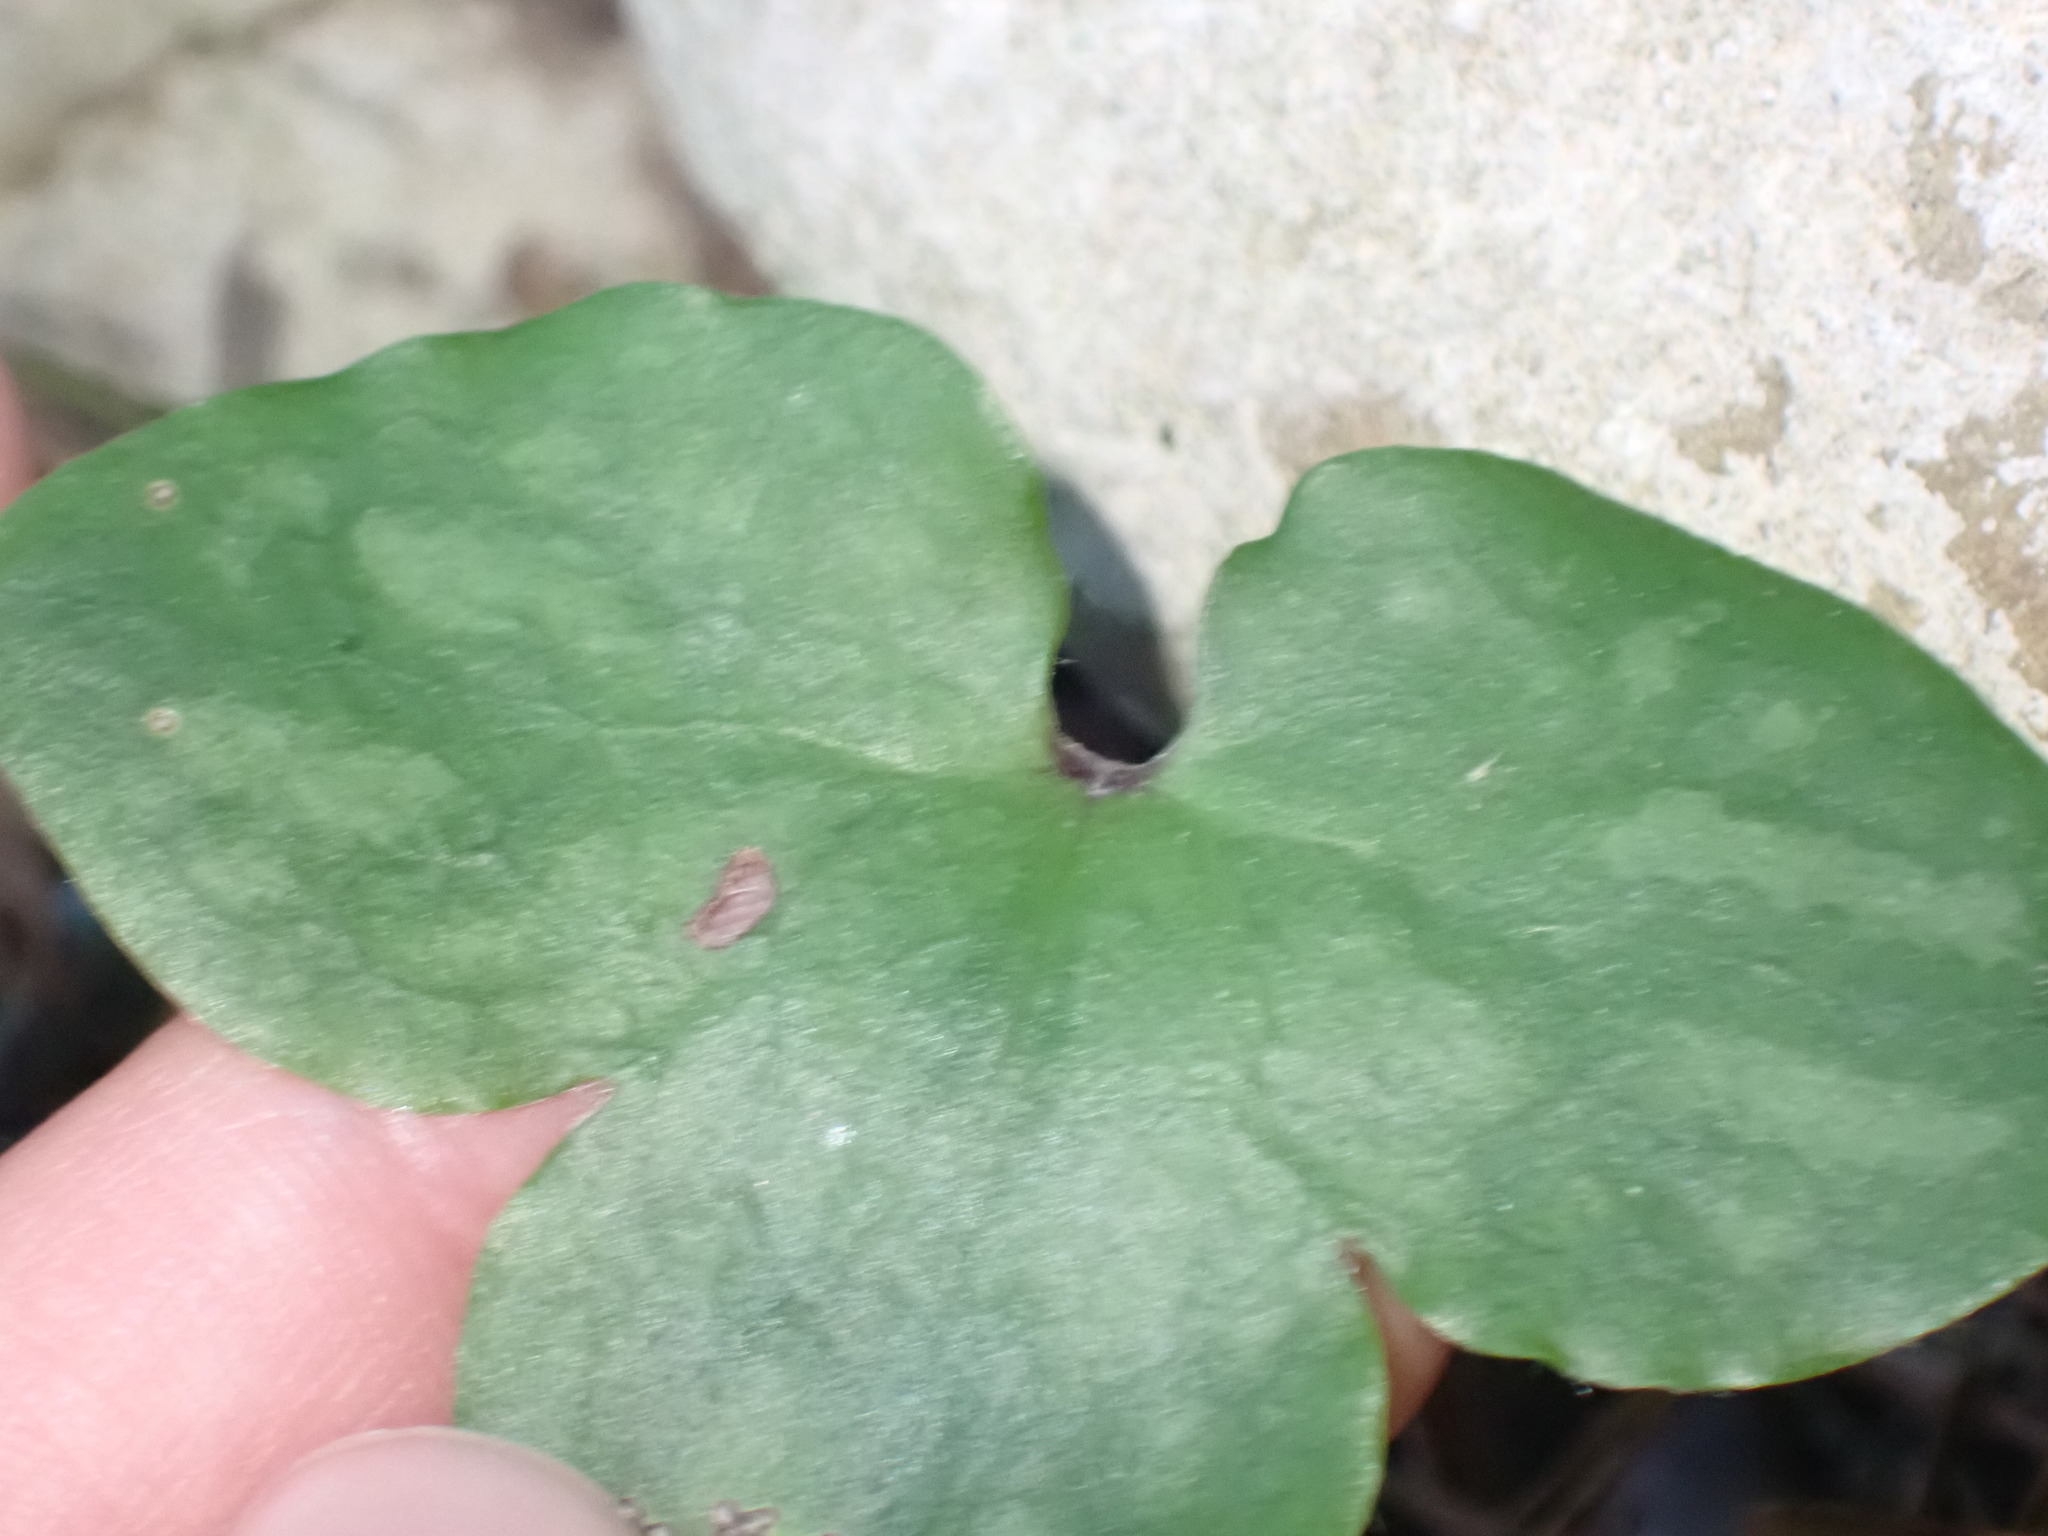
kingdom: Plantae
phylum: Tracheophyta
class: Magnoliopsida
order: Ranunculales
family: Ranunculaceae
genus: Hepatica
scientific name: Hepatica nobilis
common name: Liverleaf
